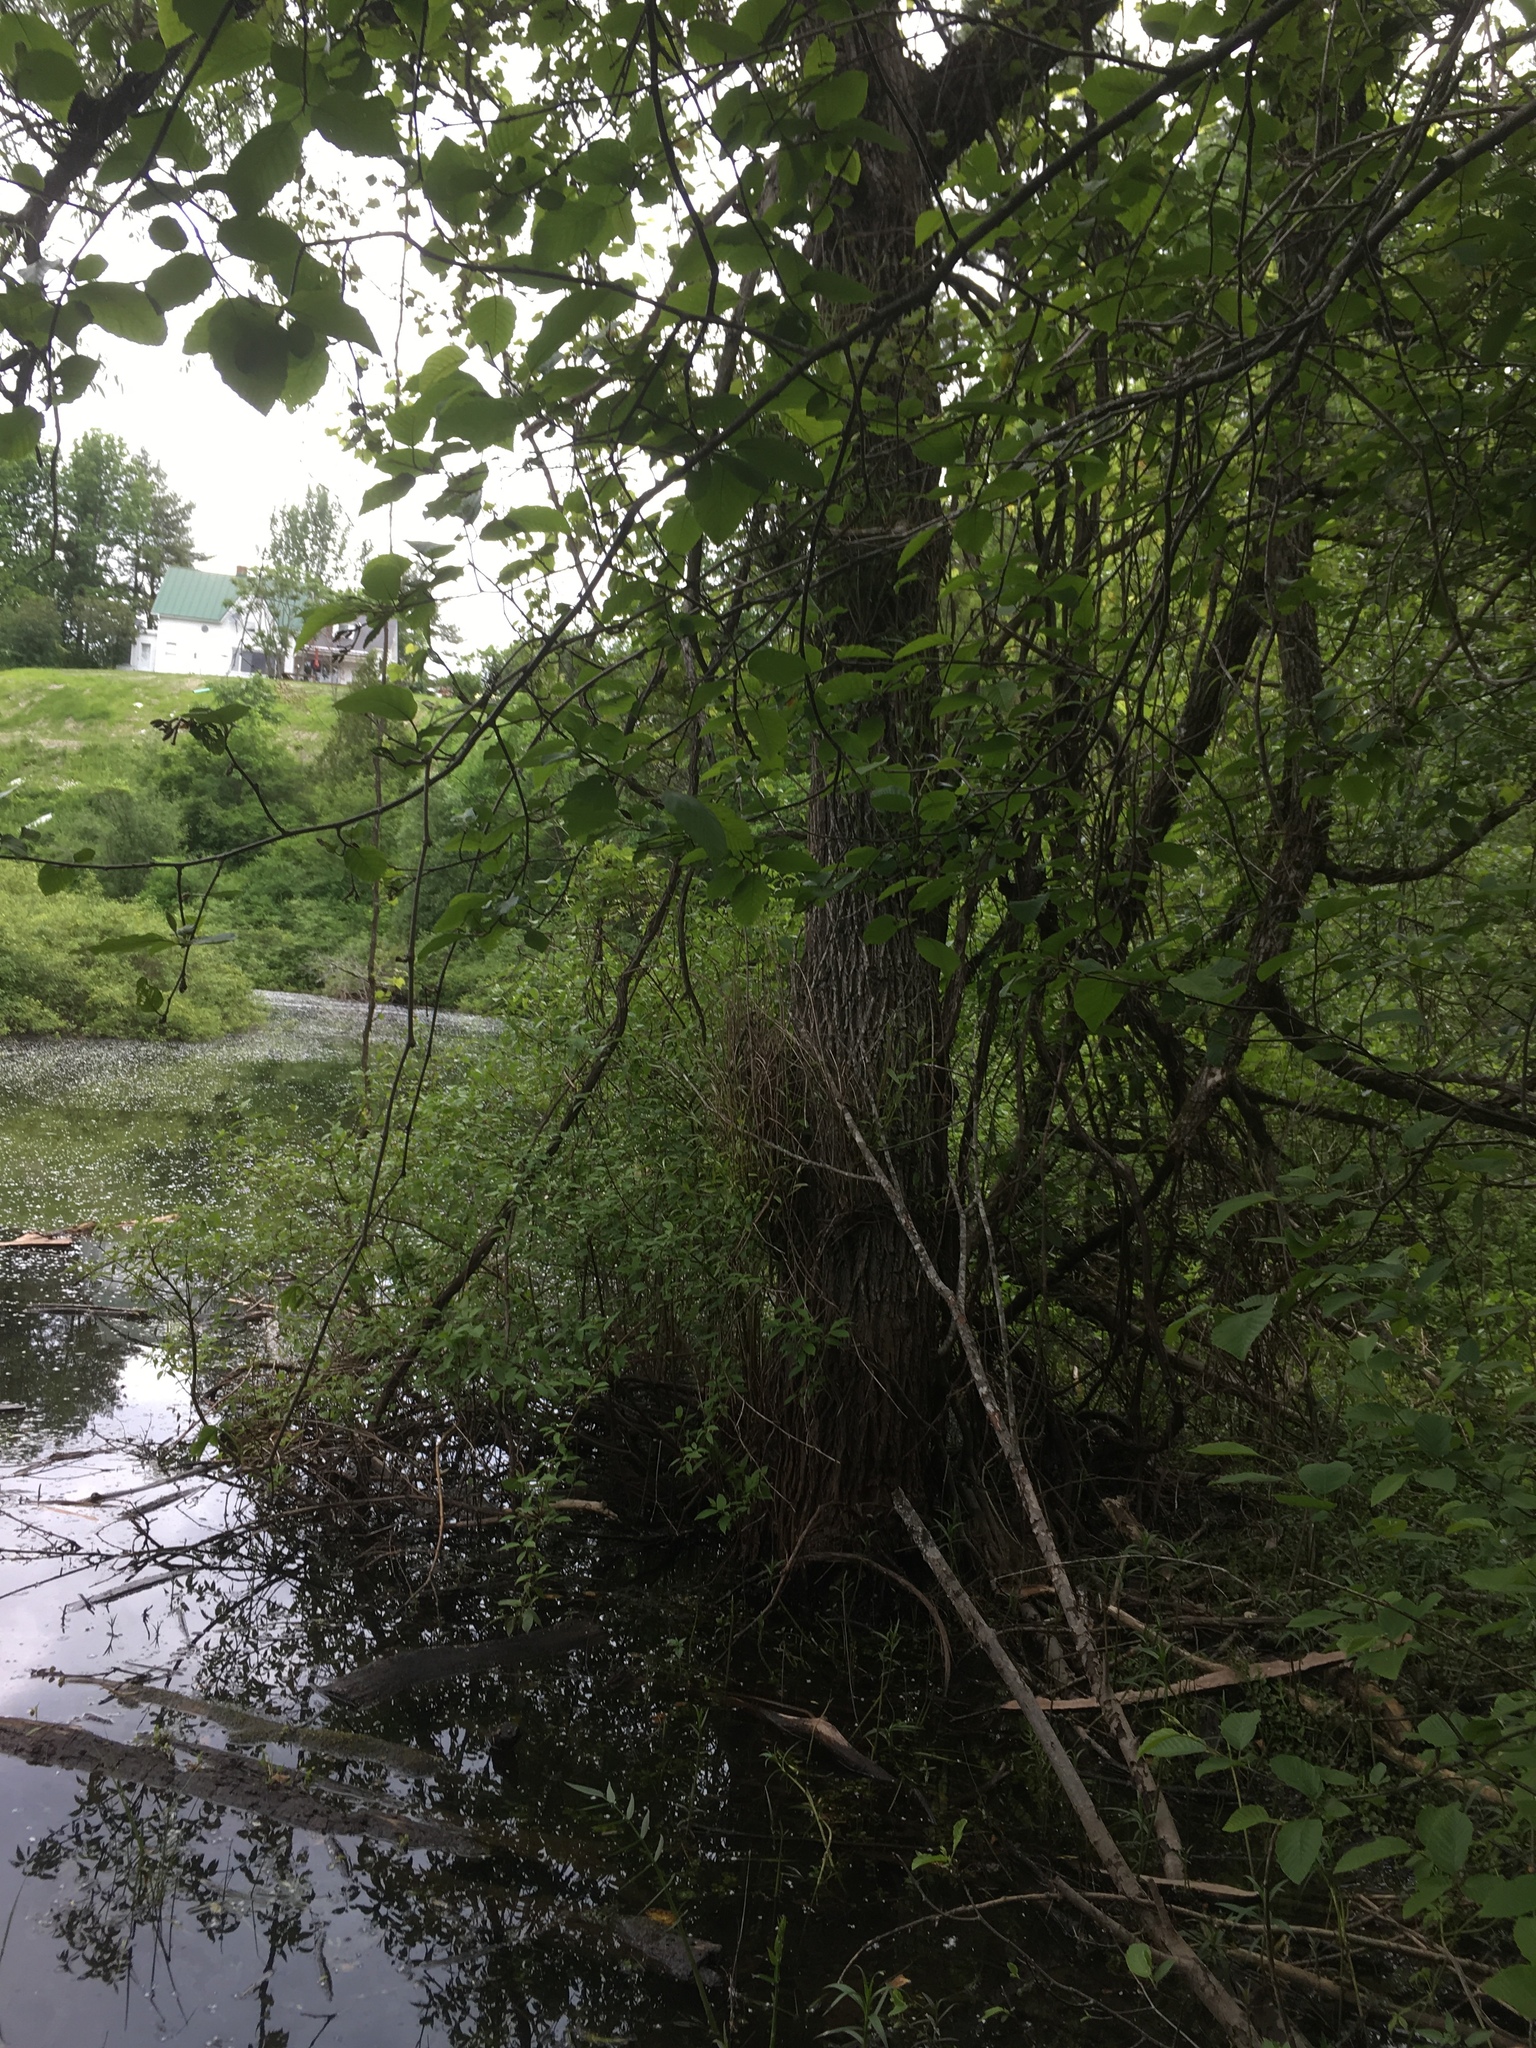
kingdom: Plantae
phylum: Tracheophyta
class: Magnoliopsida
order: Malpighiales
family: Salicaceae
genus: Salix
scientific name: Salix nigra
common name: Black willow
